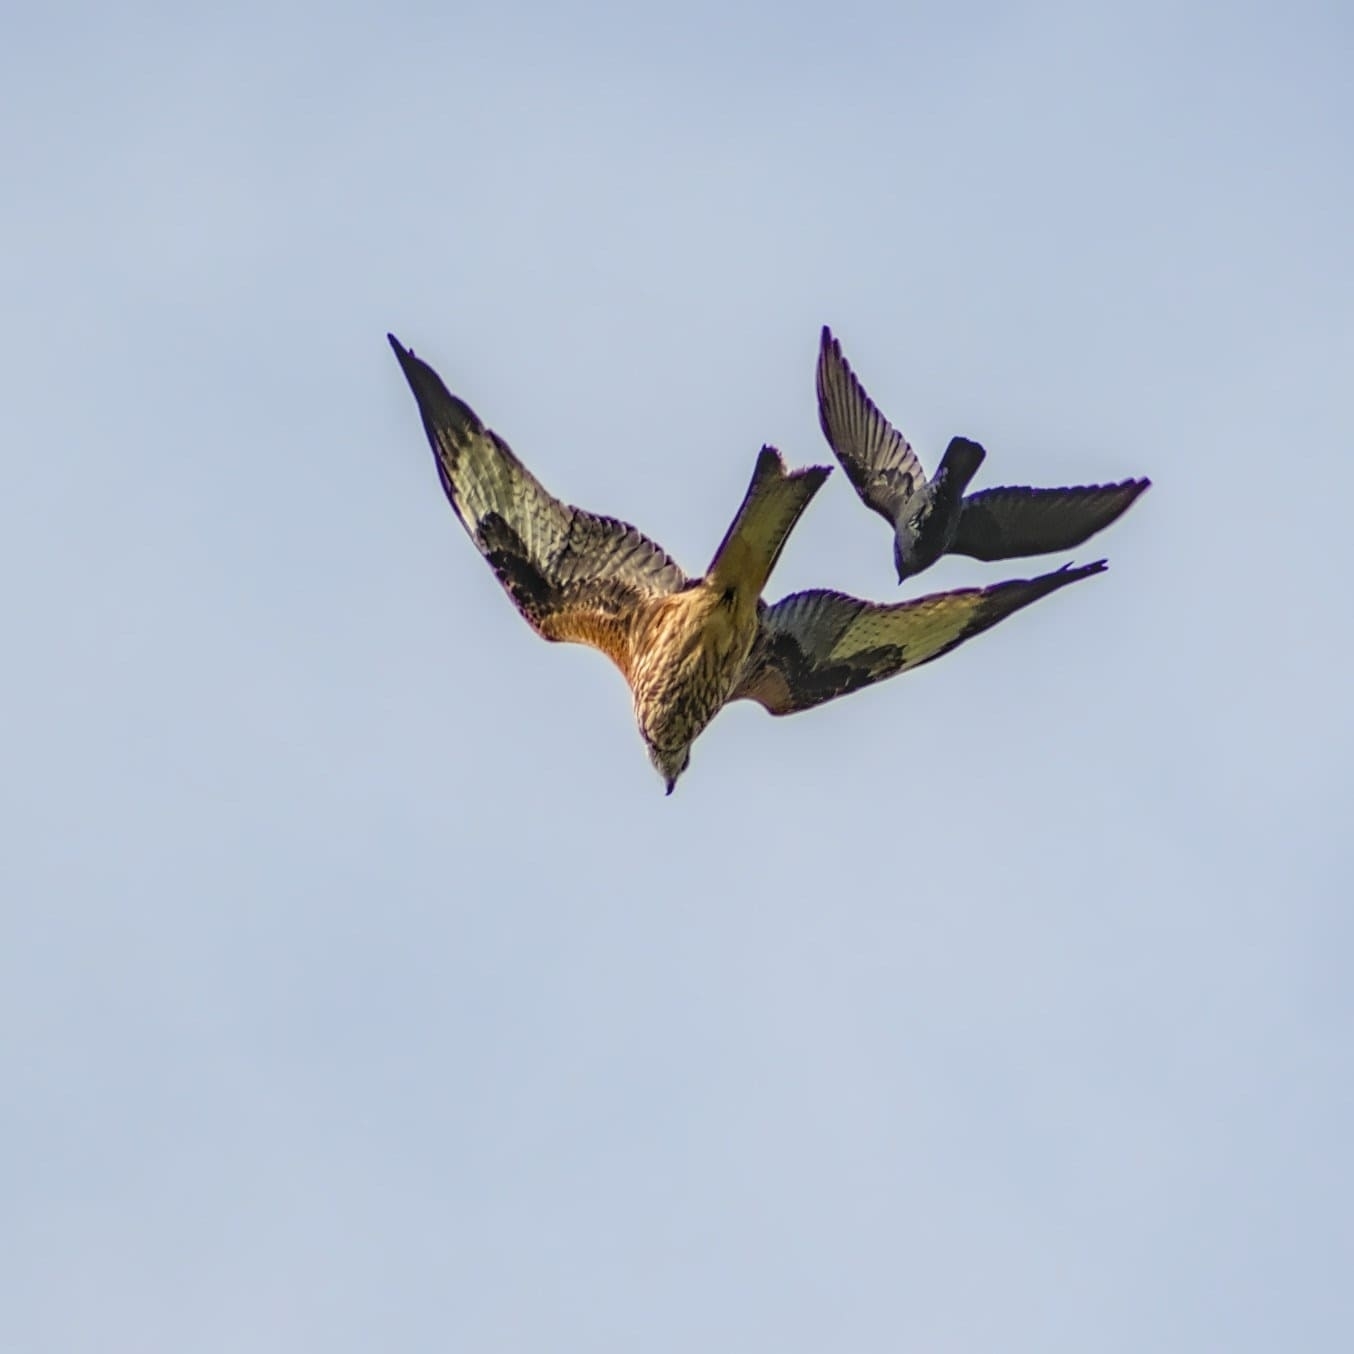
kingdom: Animalia
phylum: Chordata
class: Aves
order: Accipitriformes
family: Accipitridae
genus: Milvus
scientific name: Milvus milvus
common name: Red kite
